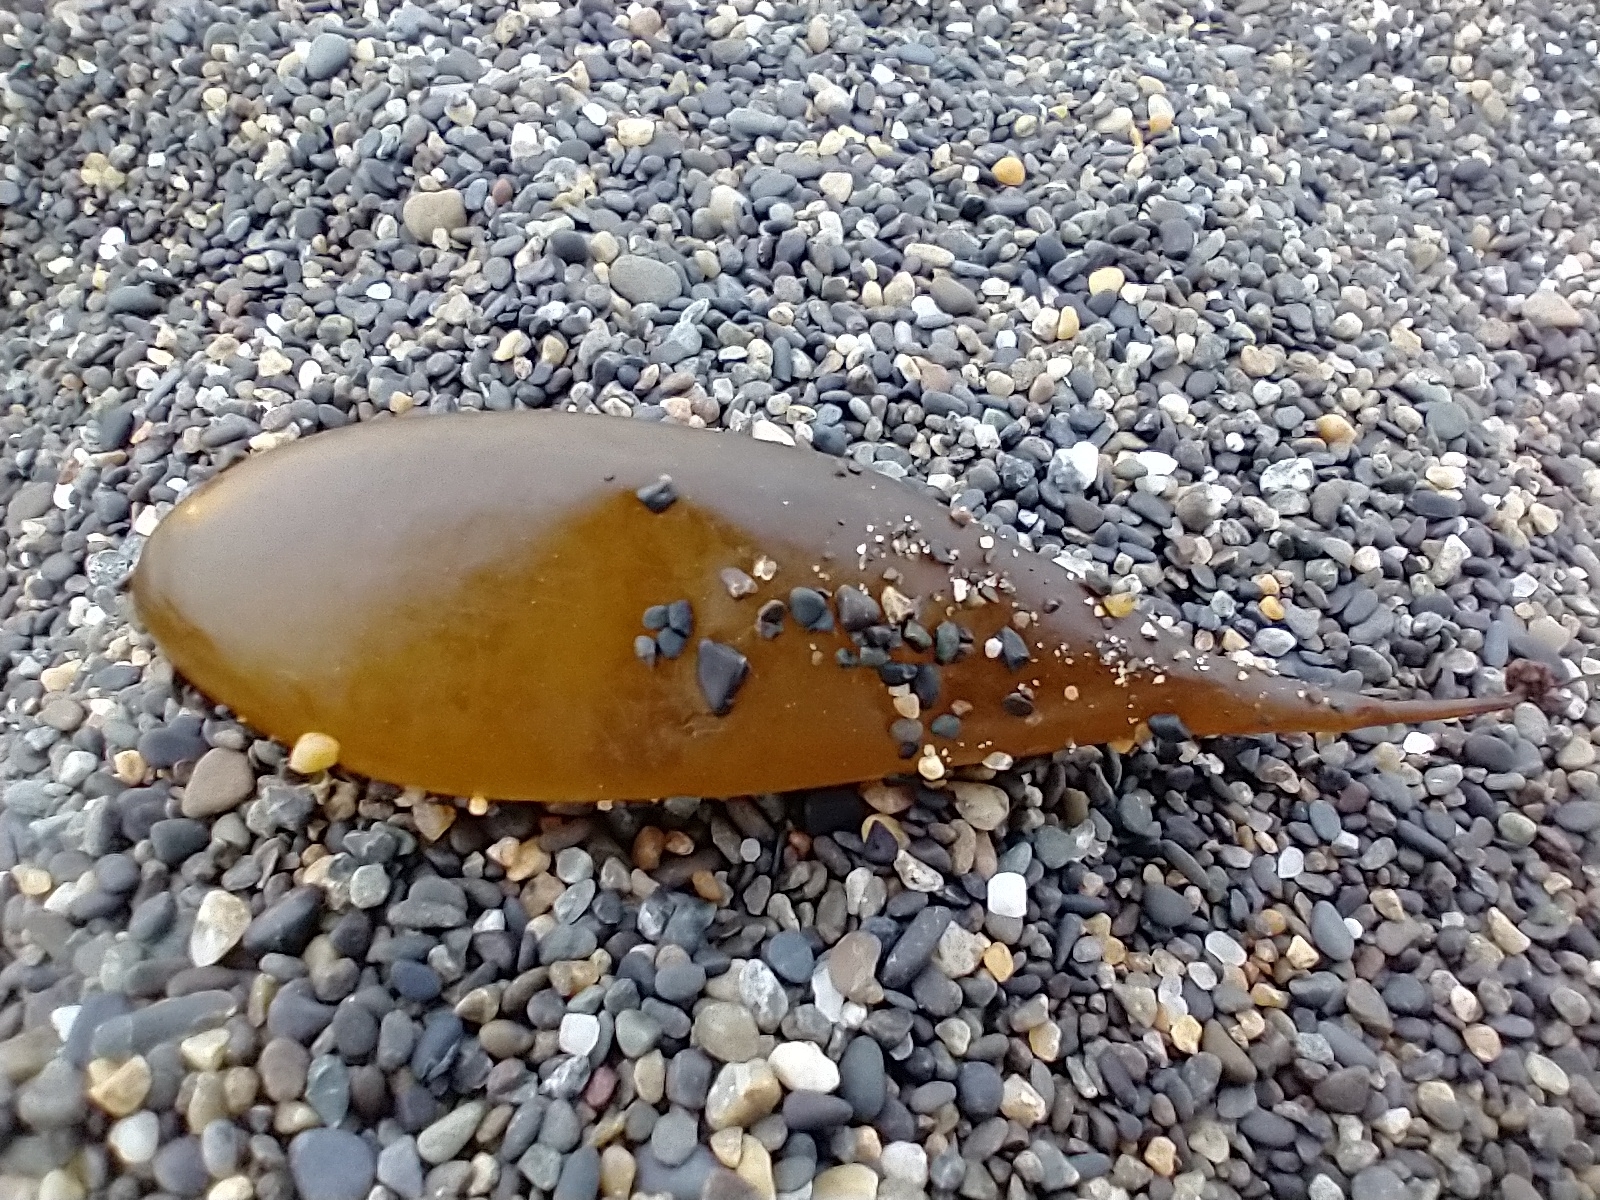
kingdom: Chromista
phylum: Ochrophyta
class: Phaeophyceae
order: Ectocarpales
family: Adenocystaceae
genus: Adenocystis
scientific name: Adenocystis utricularis
